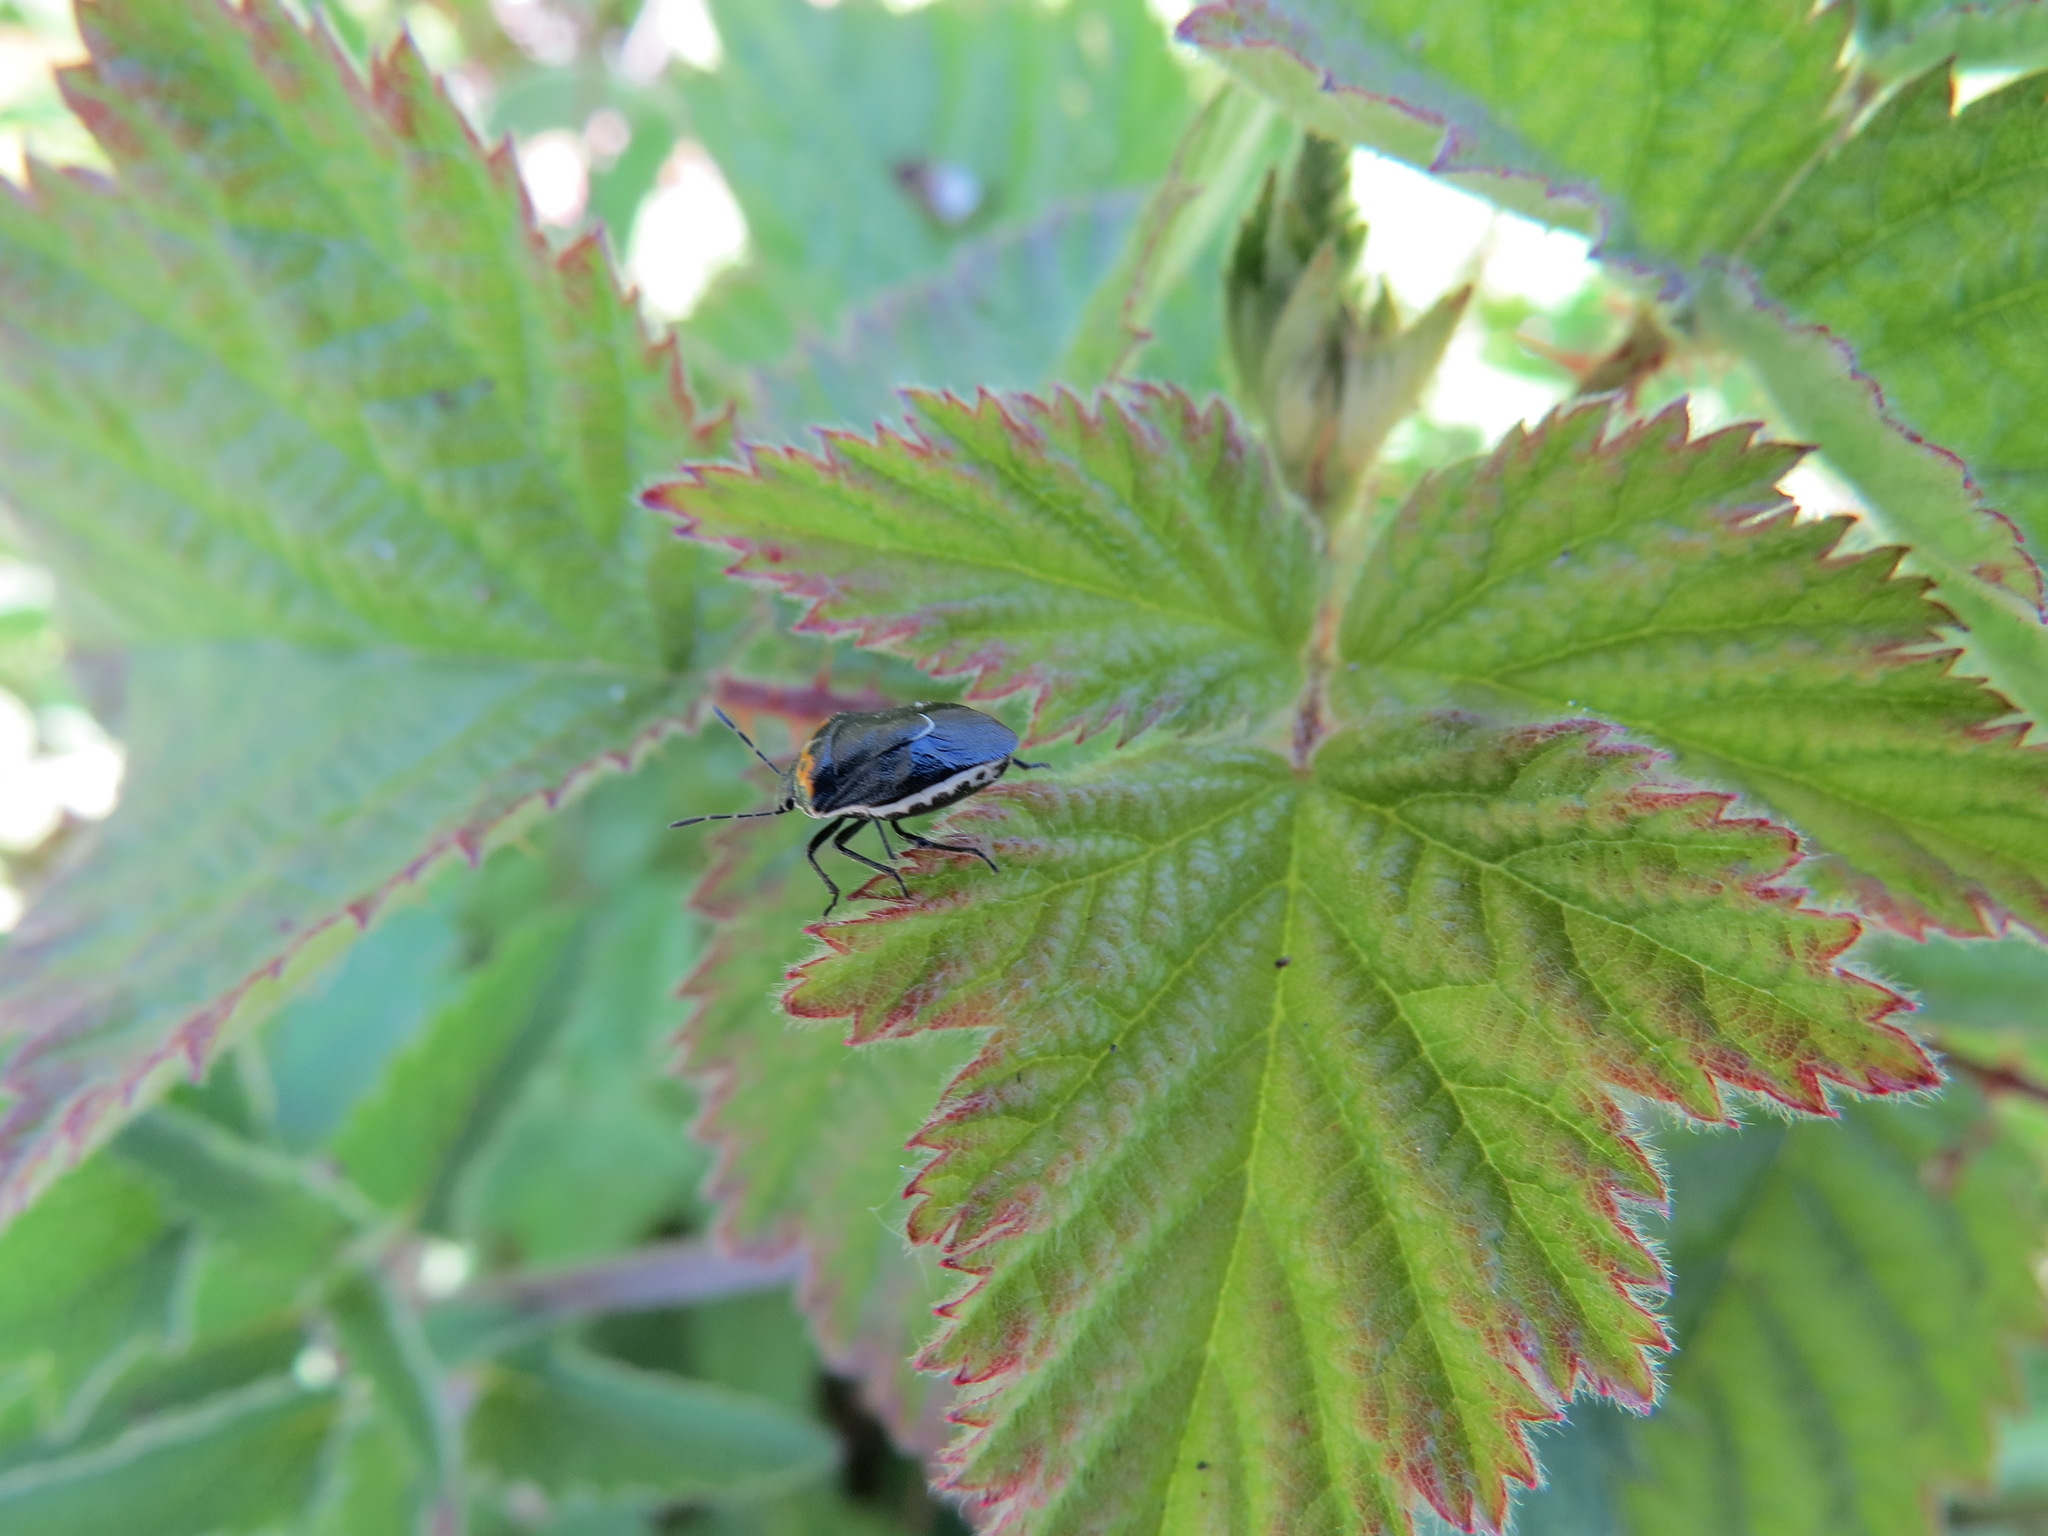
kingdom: Animalia
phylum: Arthropoda
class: Insecta
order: Hemiptera
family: Pentatomidae
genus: Cosmopepla
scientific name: Cosmopepla conspicillaris
